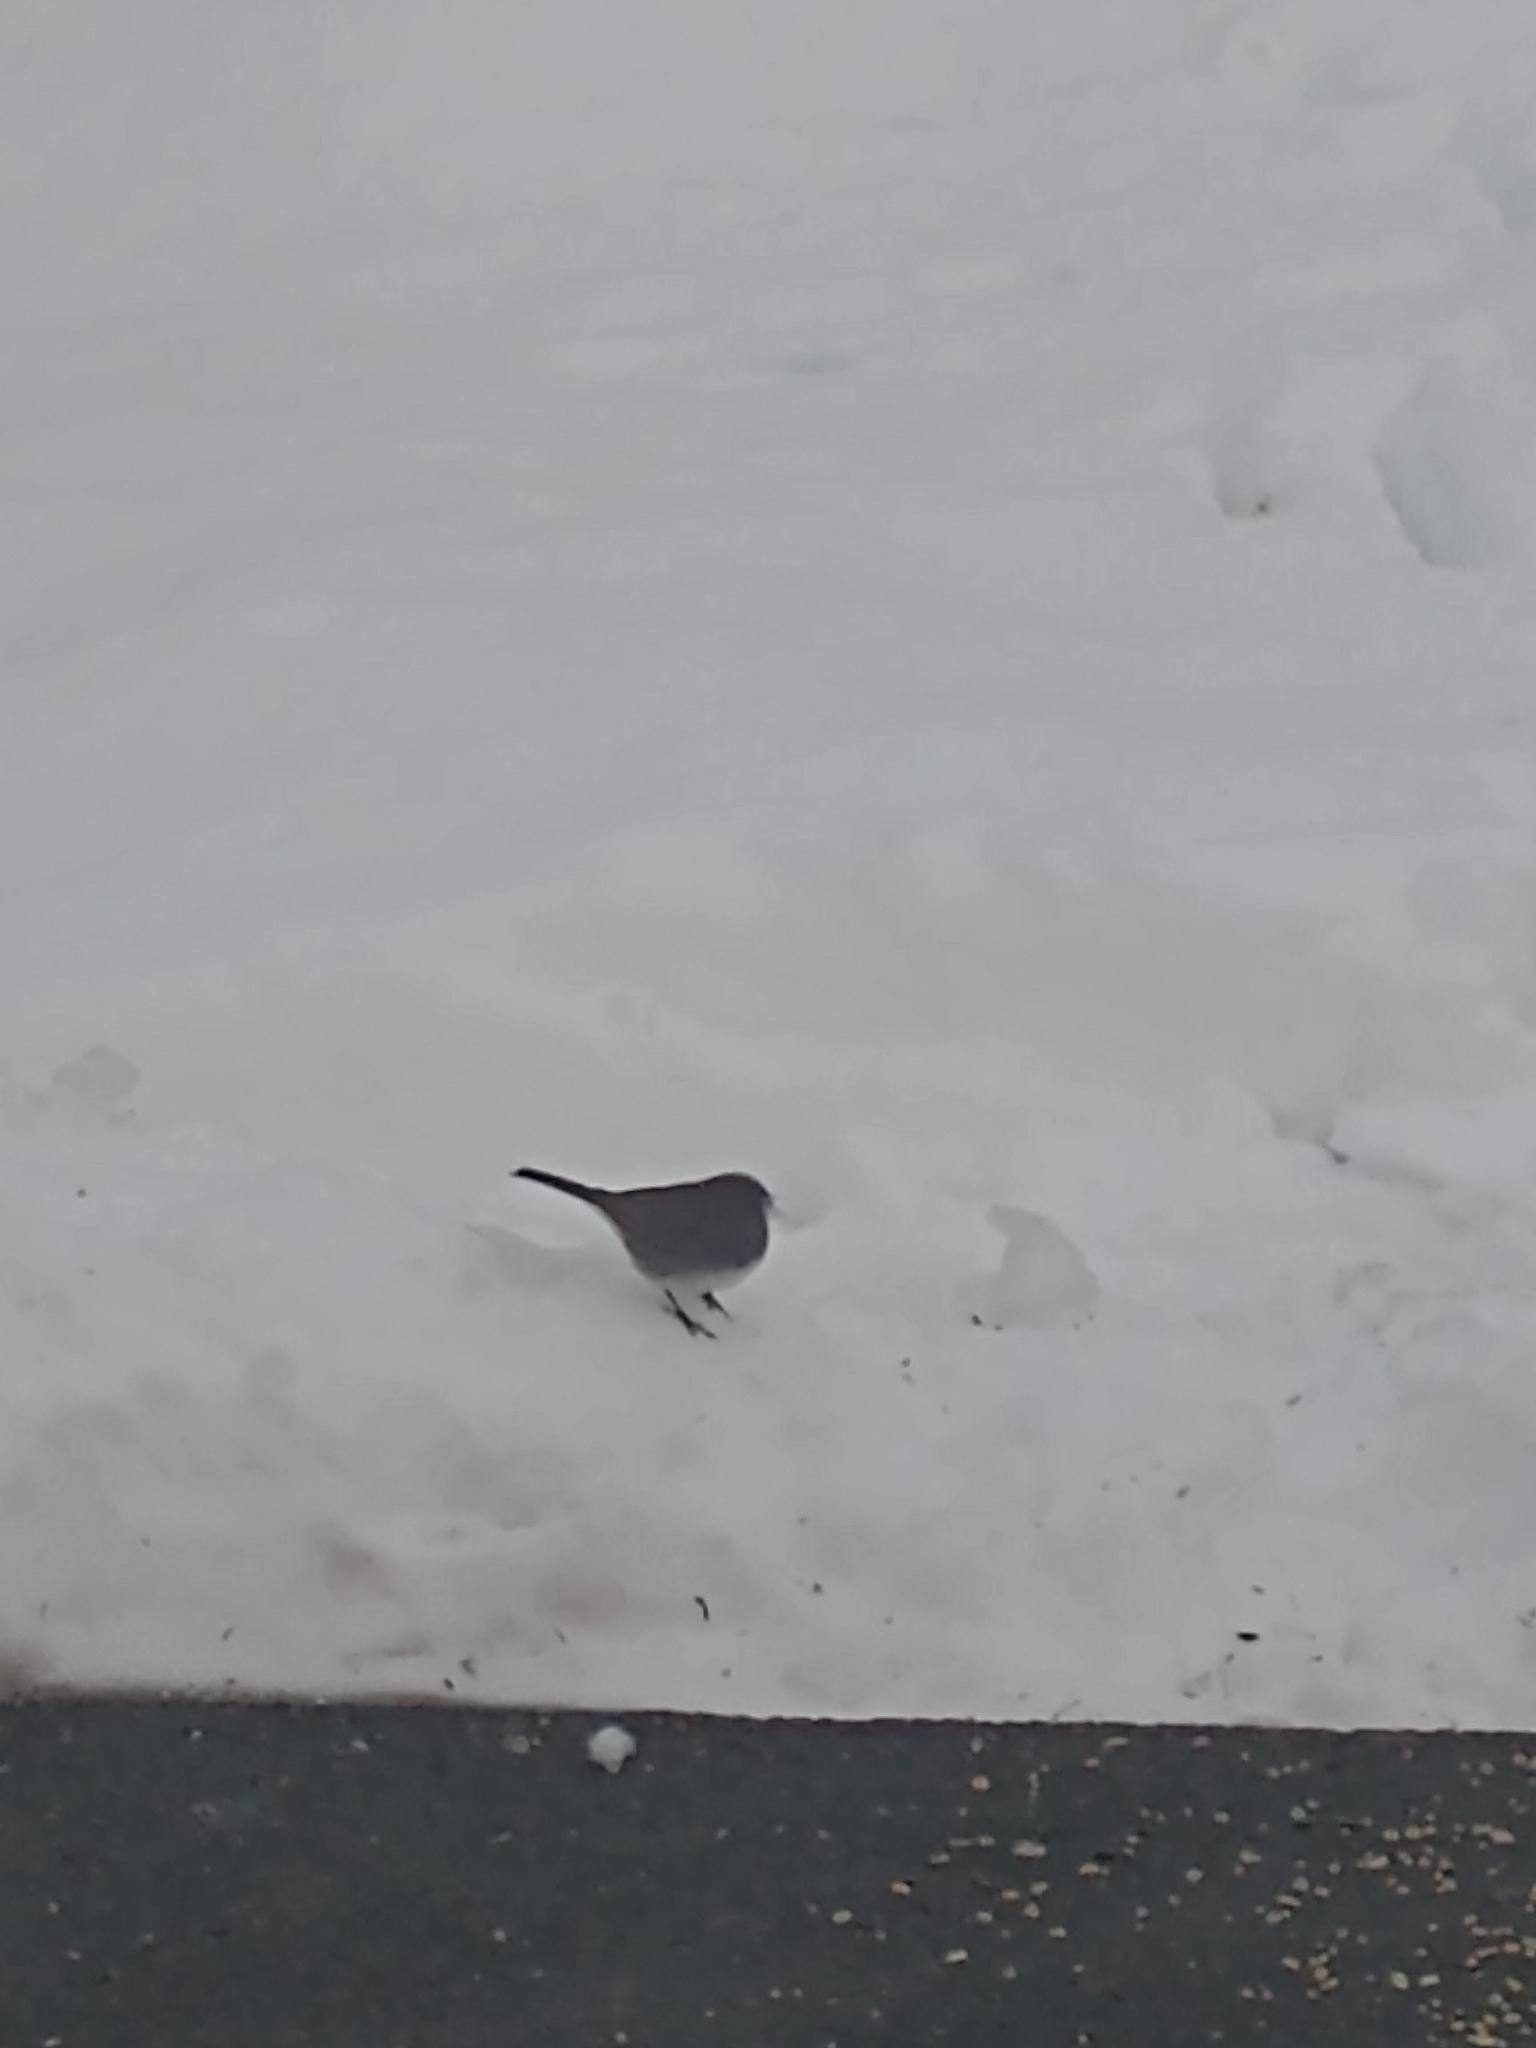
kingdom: Animalia
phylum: Chordata
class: Aves
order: Passeriformes
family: Passerellidae
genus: Junco
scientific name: Junco hyemalis
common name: Dark-eyed junco
